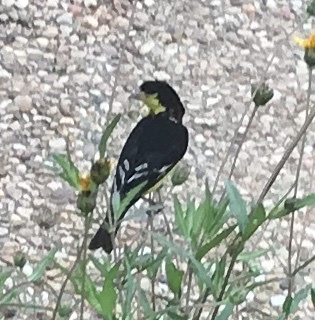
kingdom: Animalia
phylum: Chordata
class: Aves
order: Passeriformes
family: Fringillidae
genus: Spinus
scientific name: Spinus psaltria
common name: Lesser goldfinch
